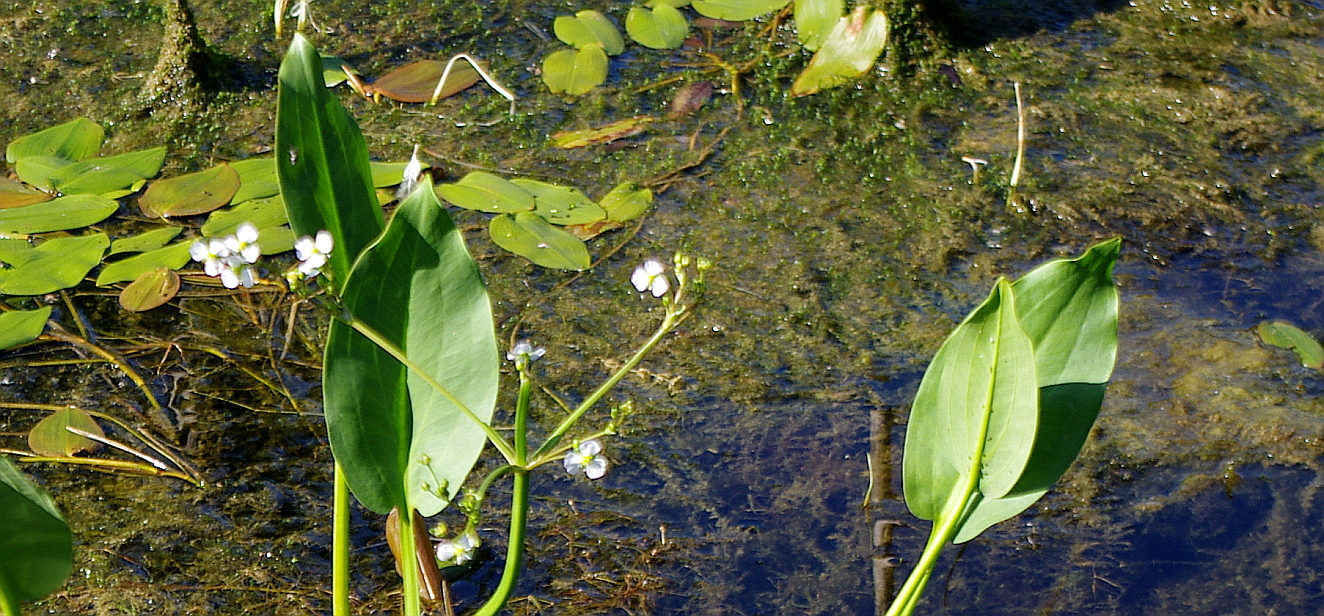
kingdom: Plantae
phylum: Tracheophyta
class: Liliopsida
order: Alismatales
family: Alismataceae
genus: Alisma
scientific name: Alisma plantago-aquatica
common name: Water-plantain
